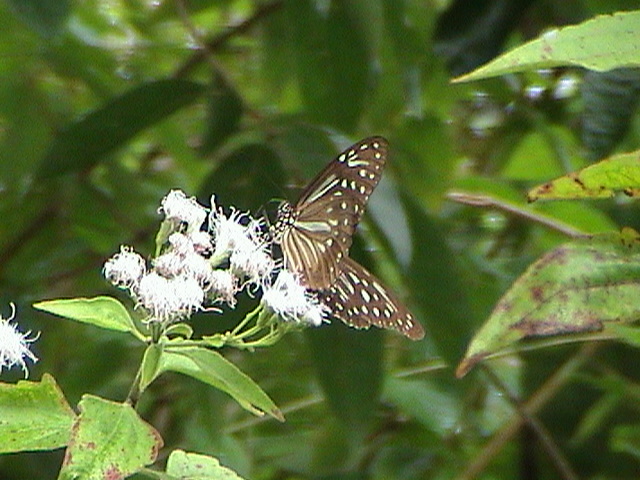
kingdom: Animalia
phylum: Arthropoda
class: Insecta
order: Lepidoptera
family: Nymphalidae
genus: Parantica
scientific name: Parantica nilgiriensis
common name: Nilgiri tiger
